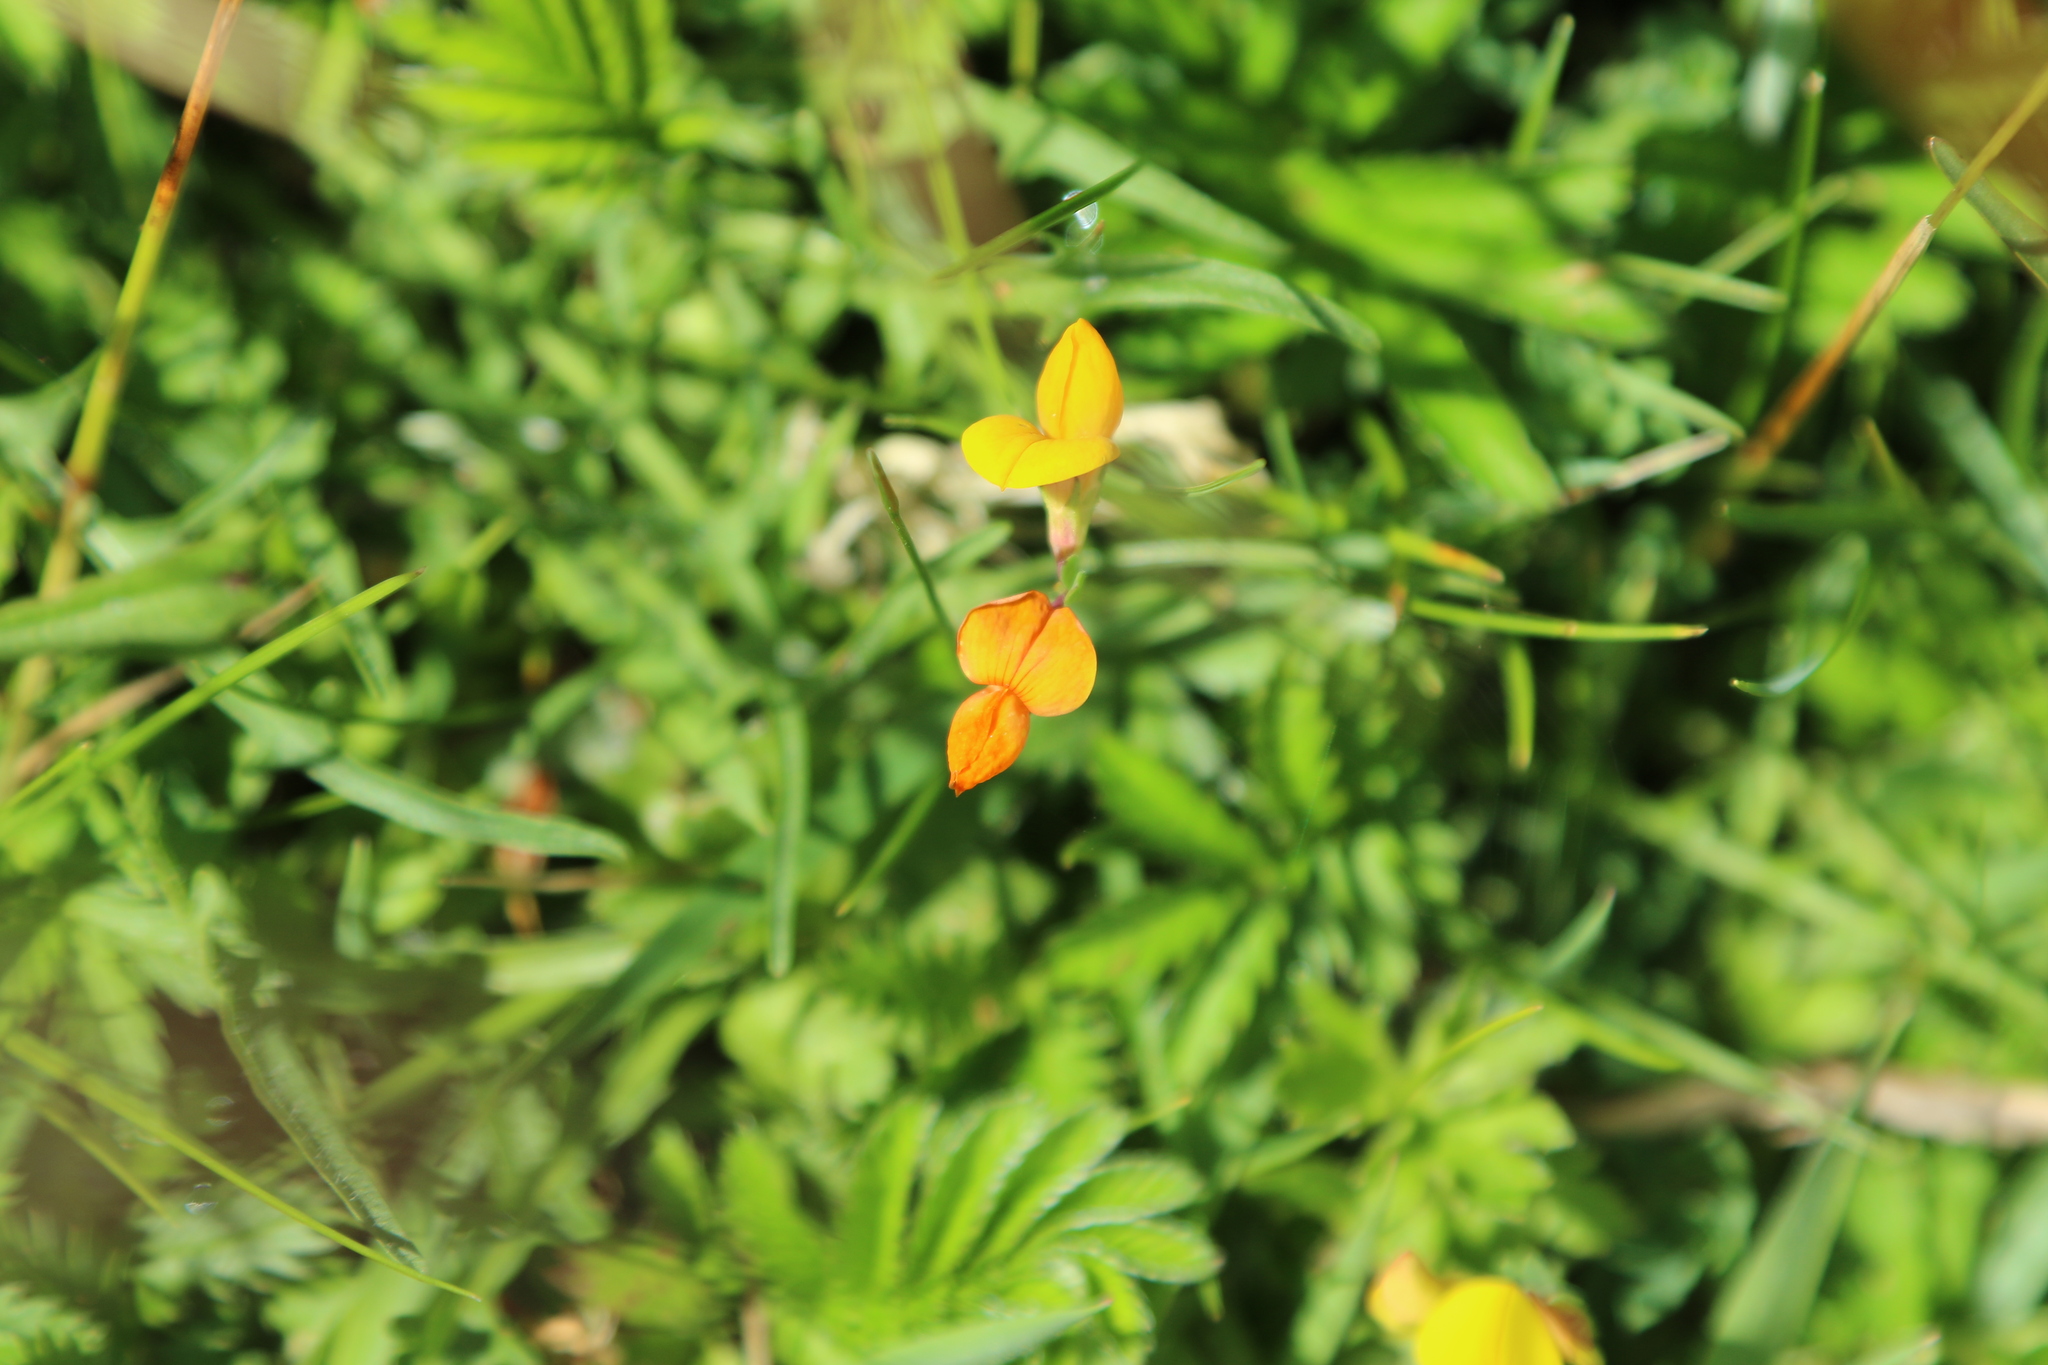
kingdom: Plantae
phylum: Tracheophyta
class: Magnoliopsida
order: Fabales
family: Fabaceae
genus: Lotus
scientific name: Lotus corniculatus
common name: Common bird's-foot-trefoil
